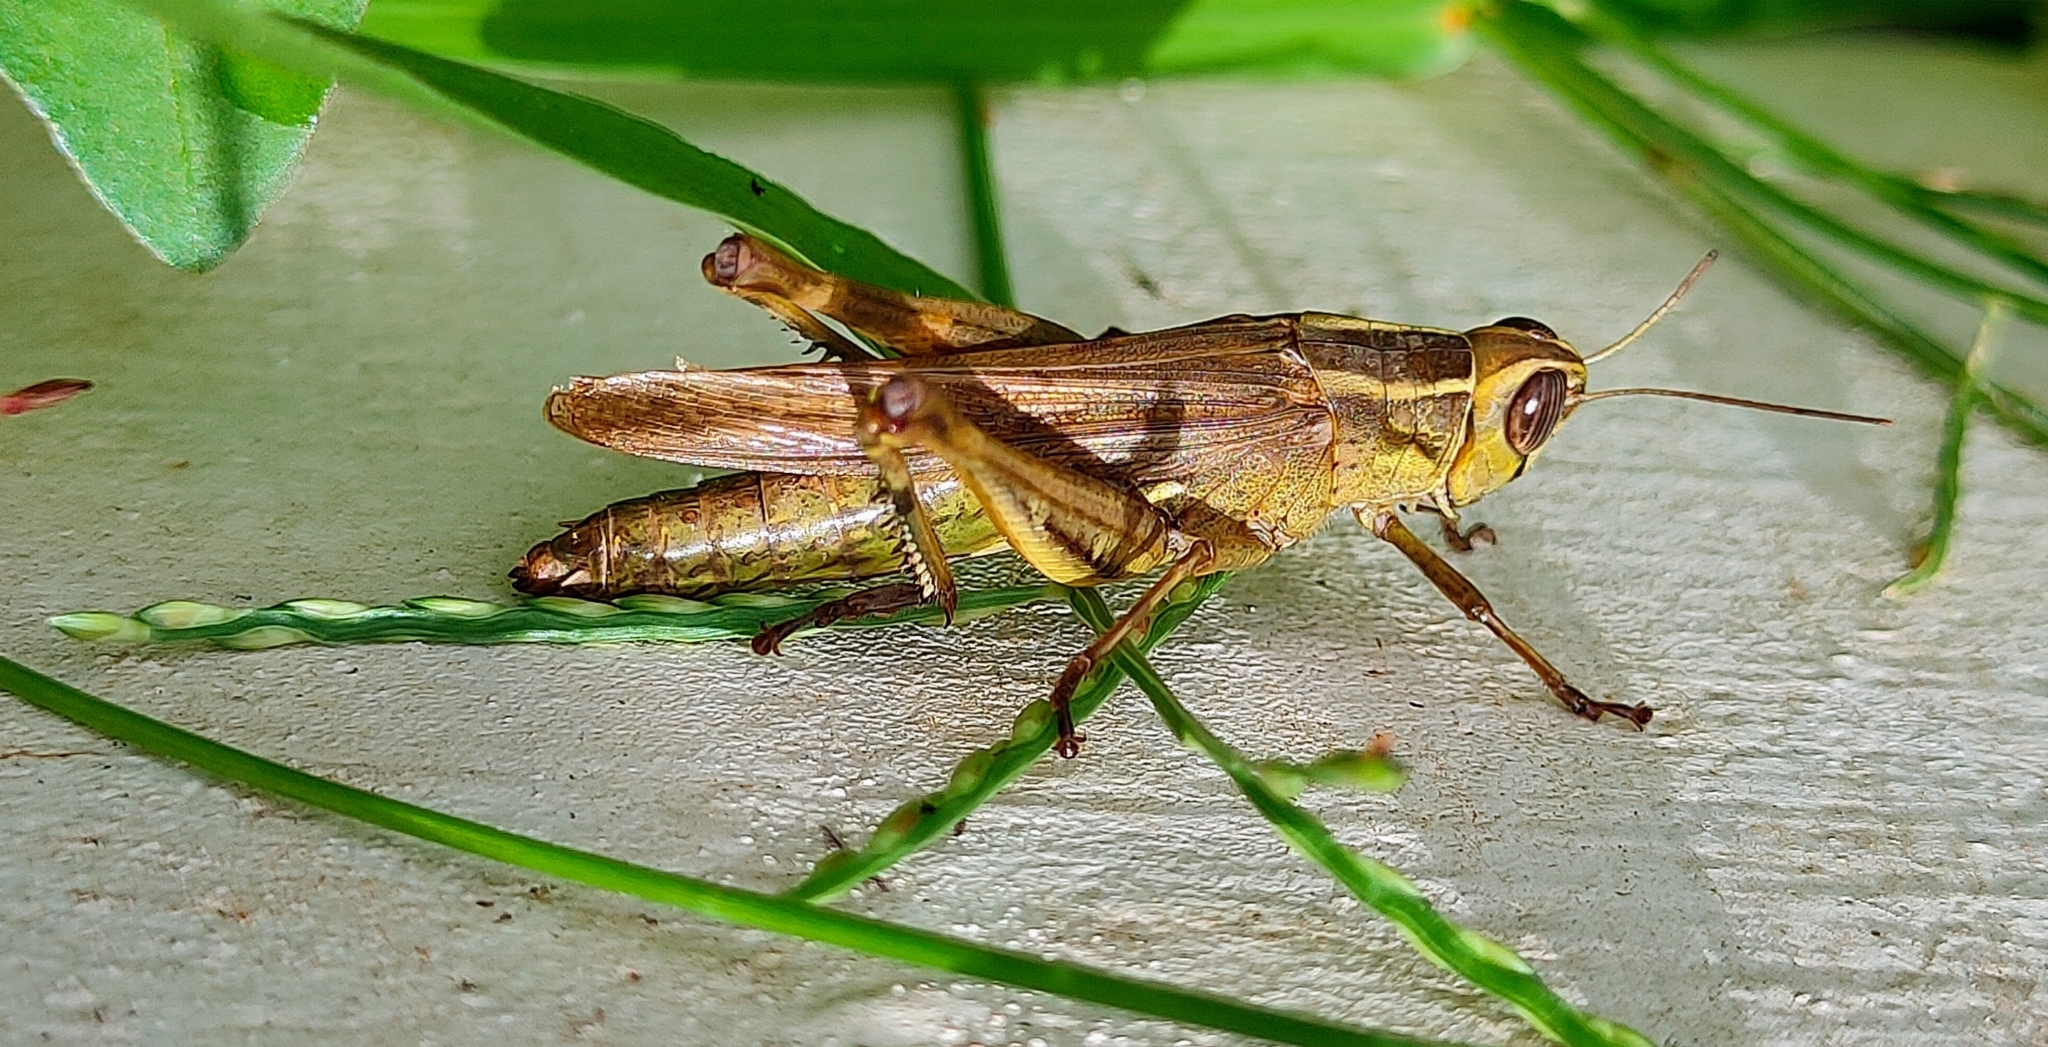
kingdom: Animalia
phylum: Arthropoda
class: Insecta
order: Orthoptera
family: Acrididae
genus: Eyprepocnemis
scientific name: Eyprepocnemis alacris
